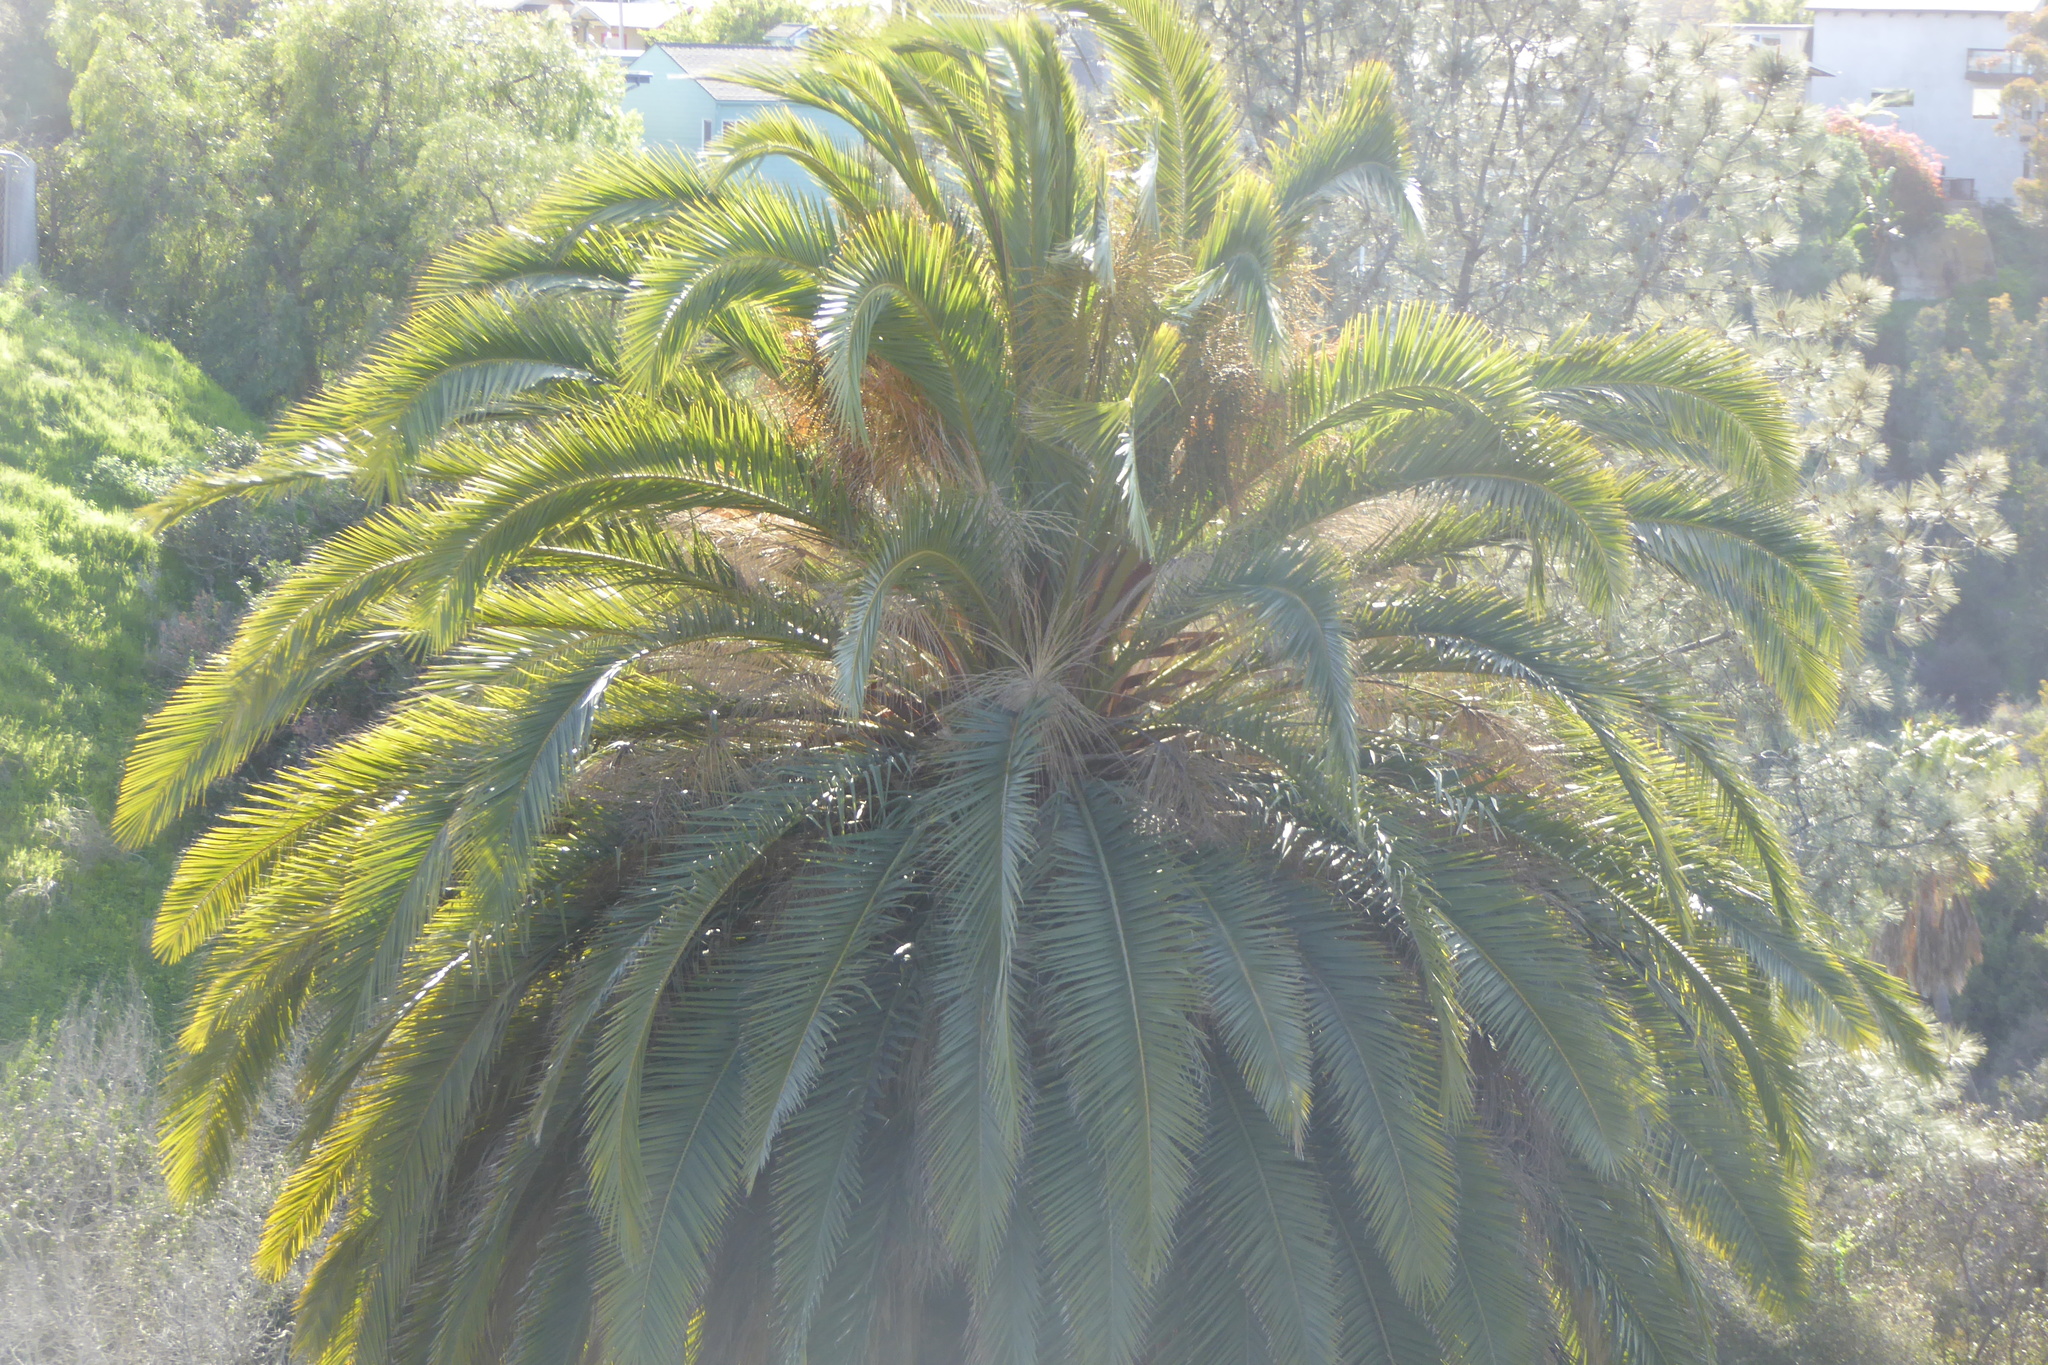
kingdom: Plantae
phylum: Tracheophyta
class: Liliopsida
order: Arecales
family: Arecaceae
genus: Phoenix
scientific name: Phoenix canariensis
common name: Canary island date palm
